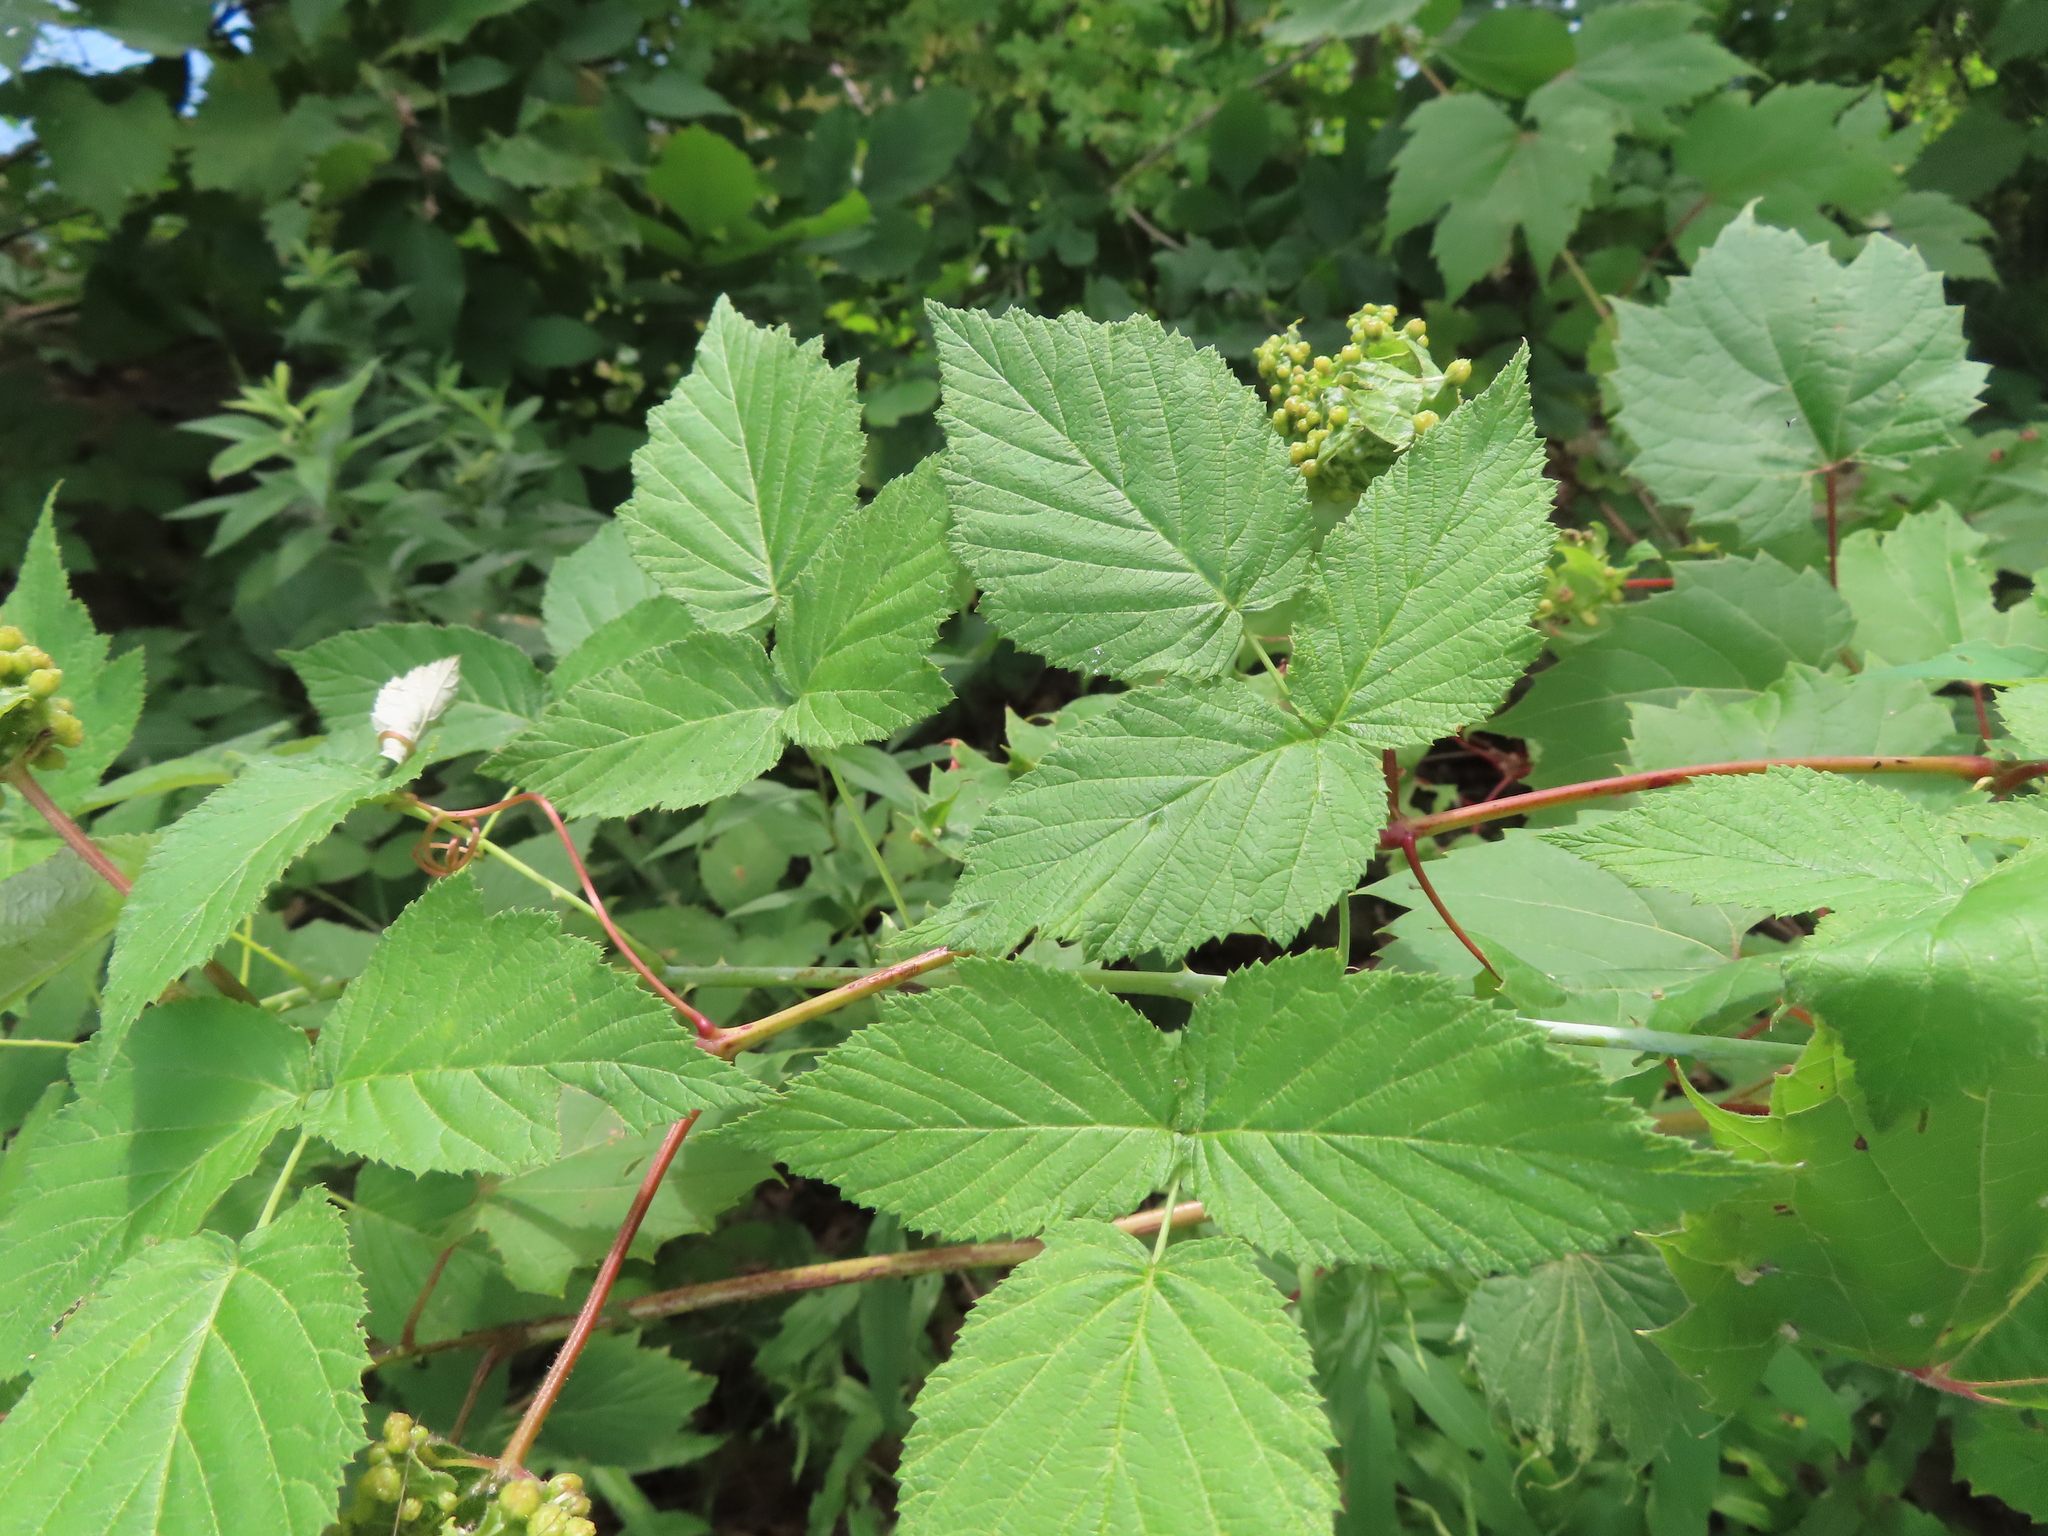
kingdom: Plantae
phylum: Tracheophyta
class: Magnoliopsida
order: Rosales
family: Rosaceae
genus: Rubus
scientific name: Rubus occidentalis
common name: Black raspberry
